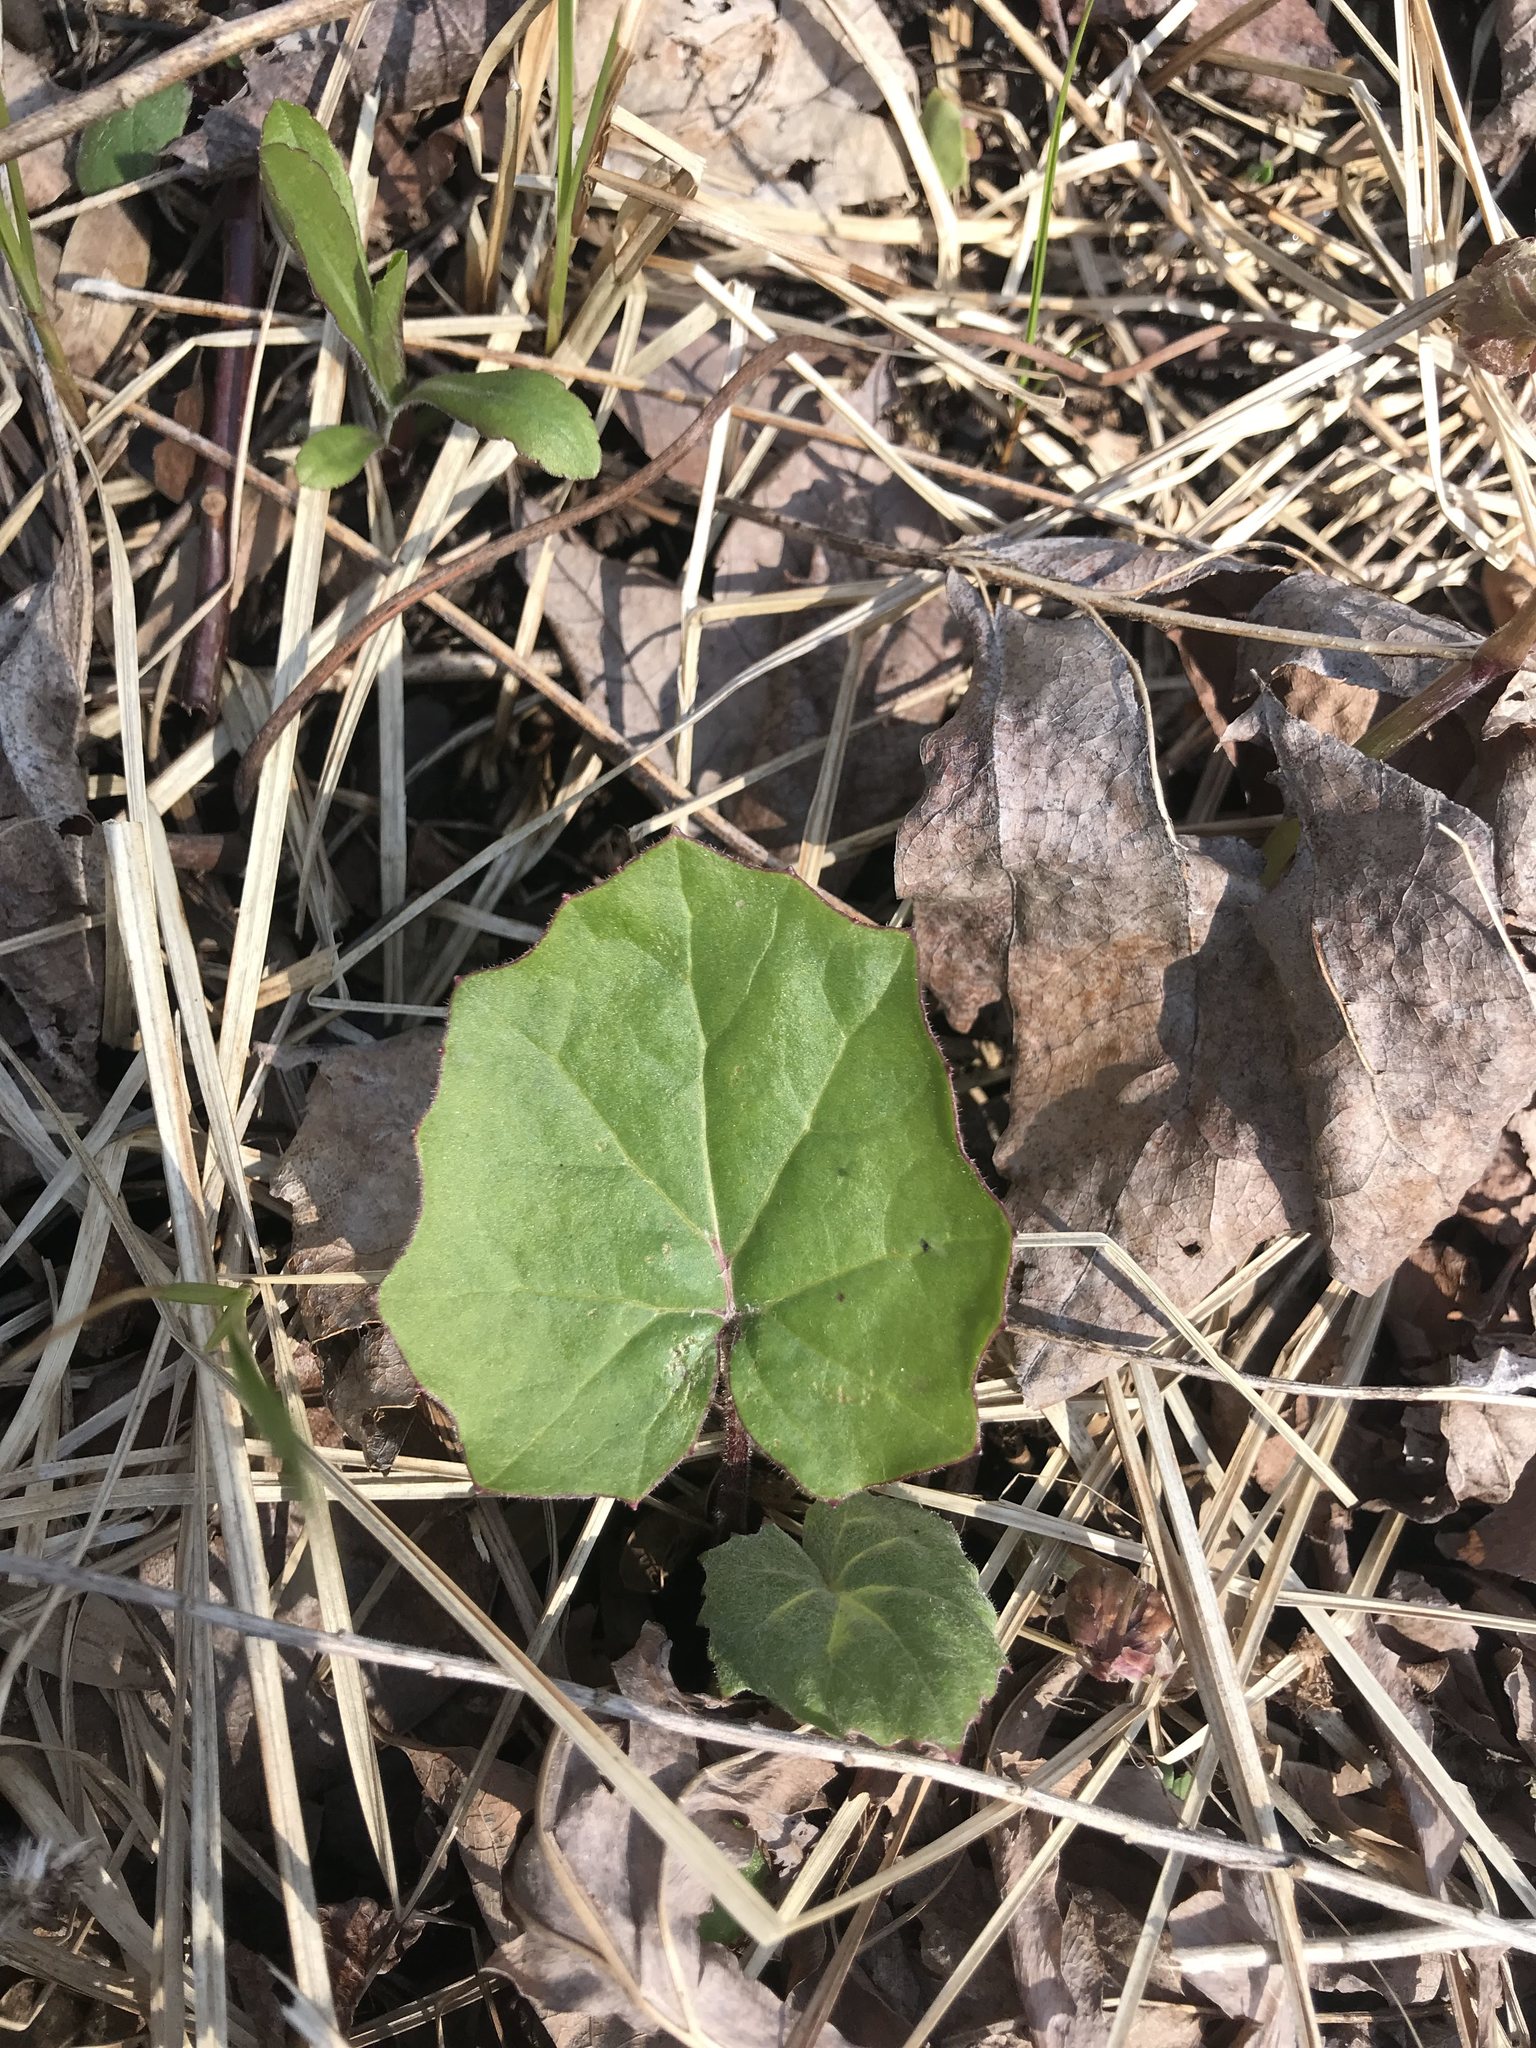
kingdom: Plantae
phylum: Tracheophyta
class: Magnoliopsida
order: Asterales
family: Asteraceae
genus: Tussilago
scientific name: Tussilago farfara
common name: Coltsfoot
